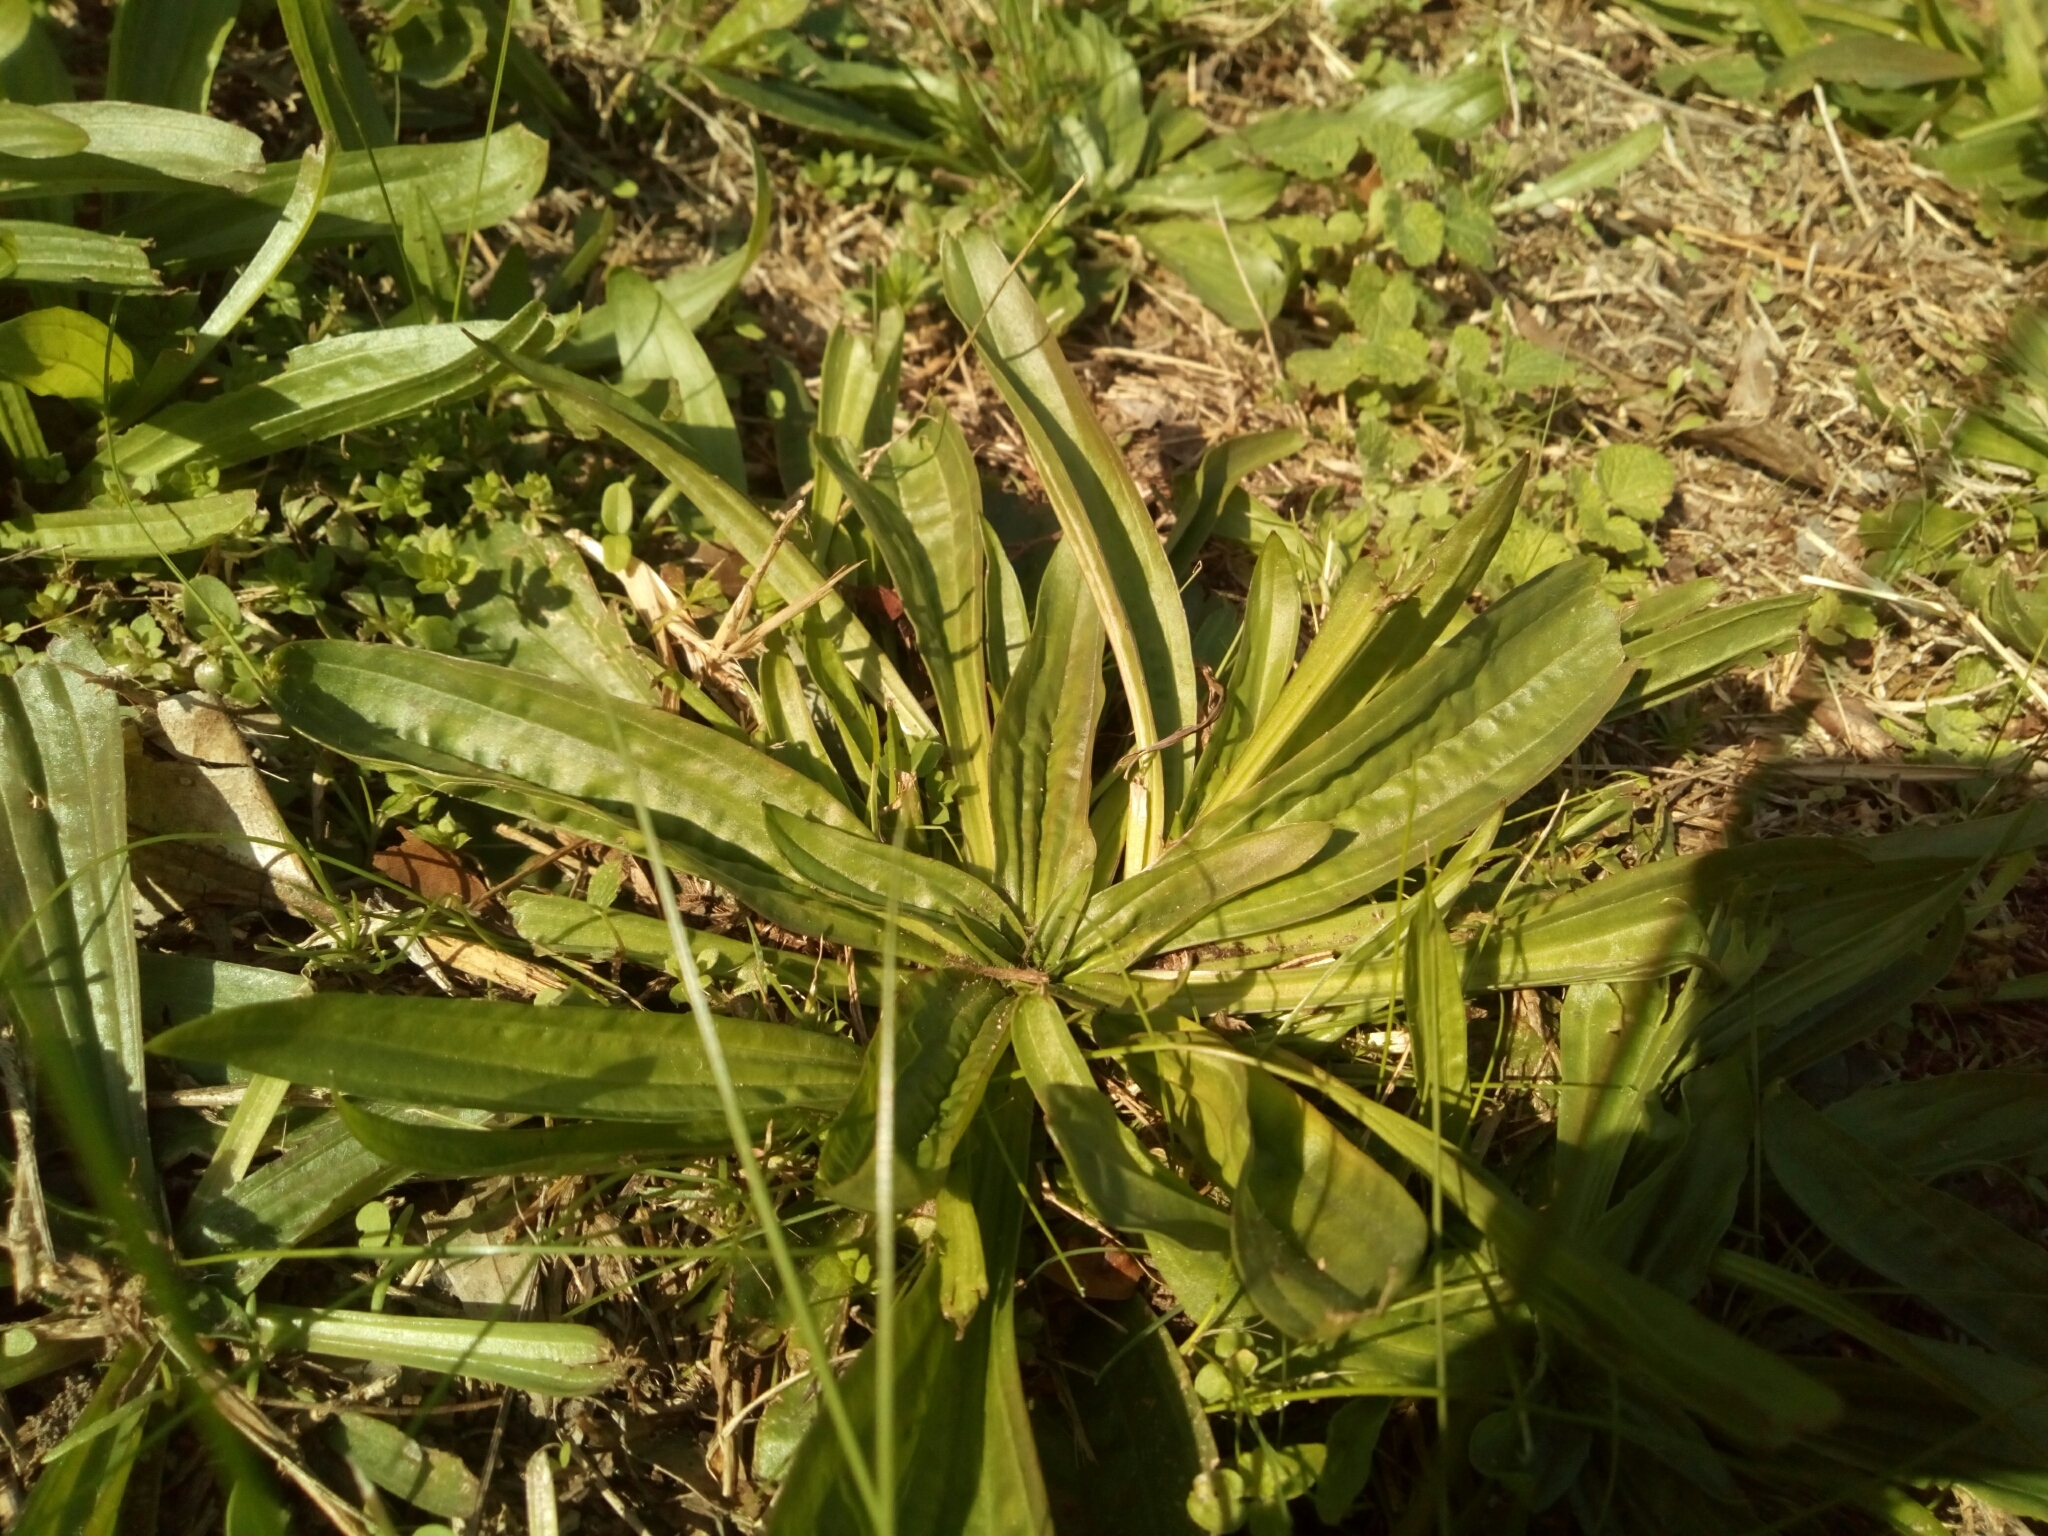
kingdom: Plantae
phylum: Tracheophyta
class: Magnoliopsida
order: Lamiales
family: Plantaginaceae
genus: Plantago
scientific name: Plantago lanceolata
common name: Ribwort plantain
